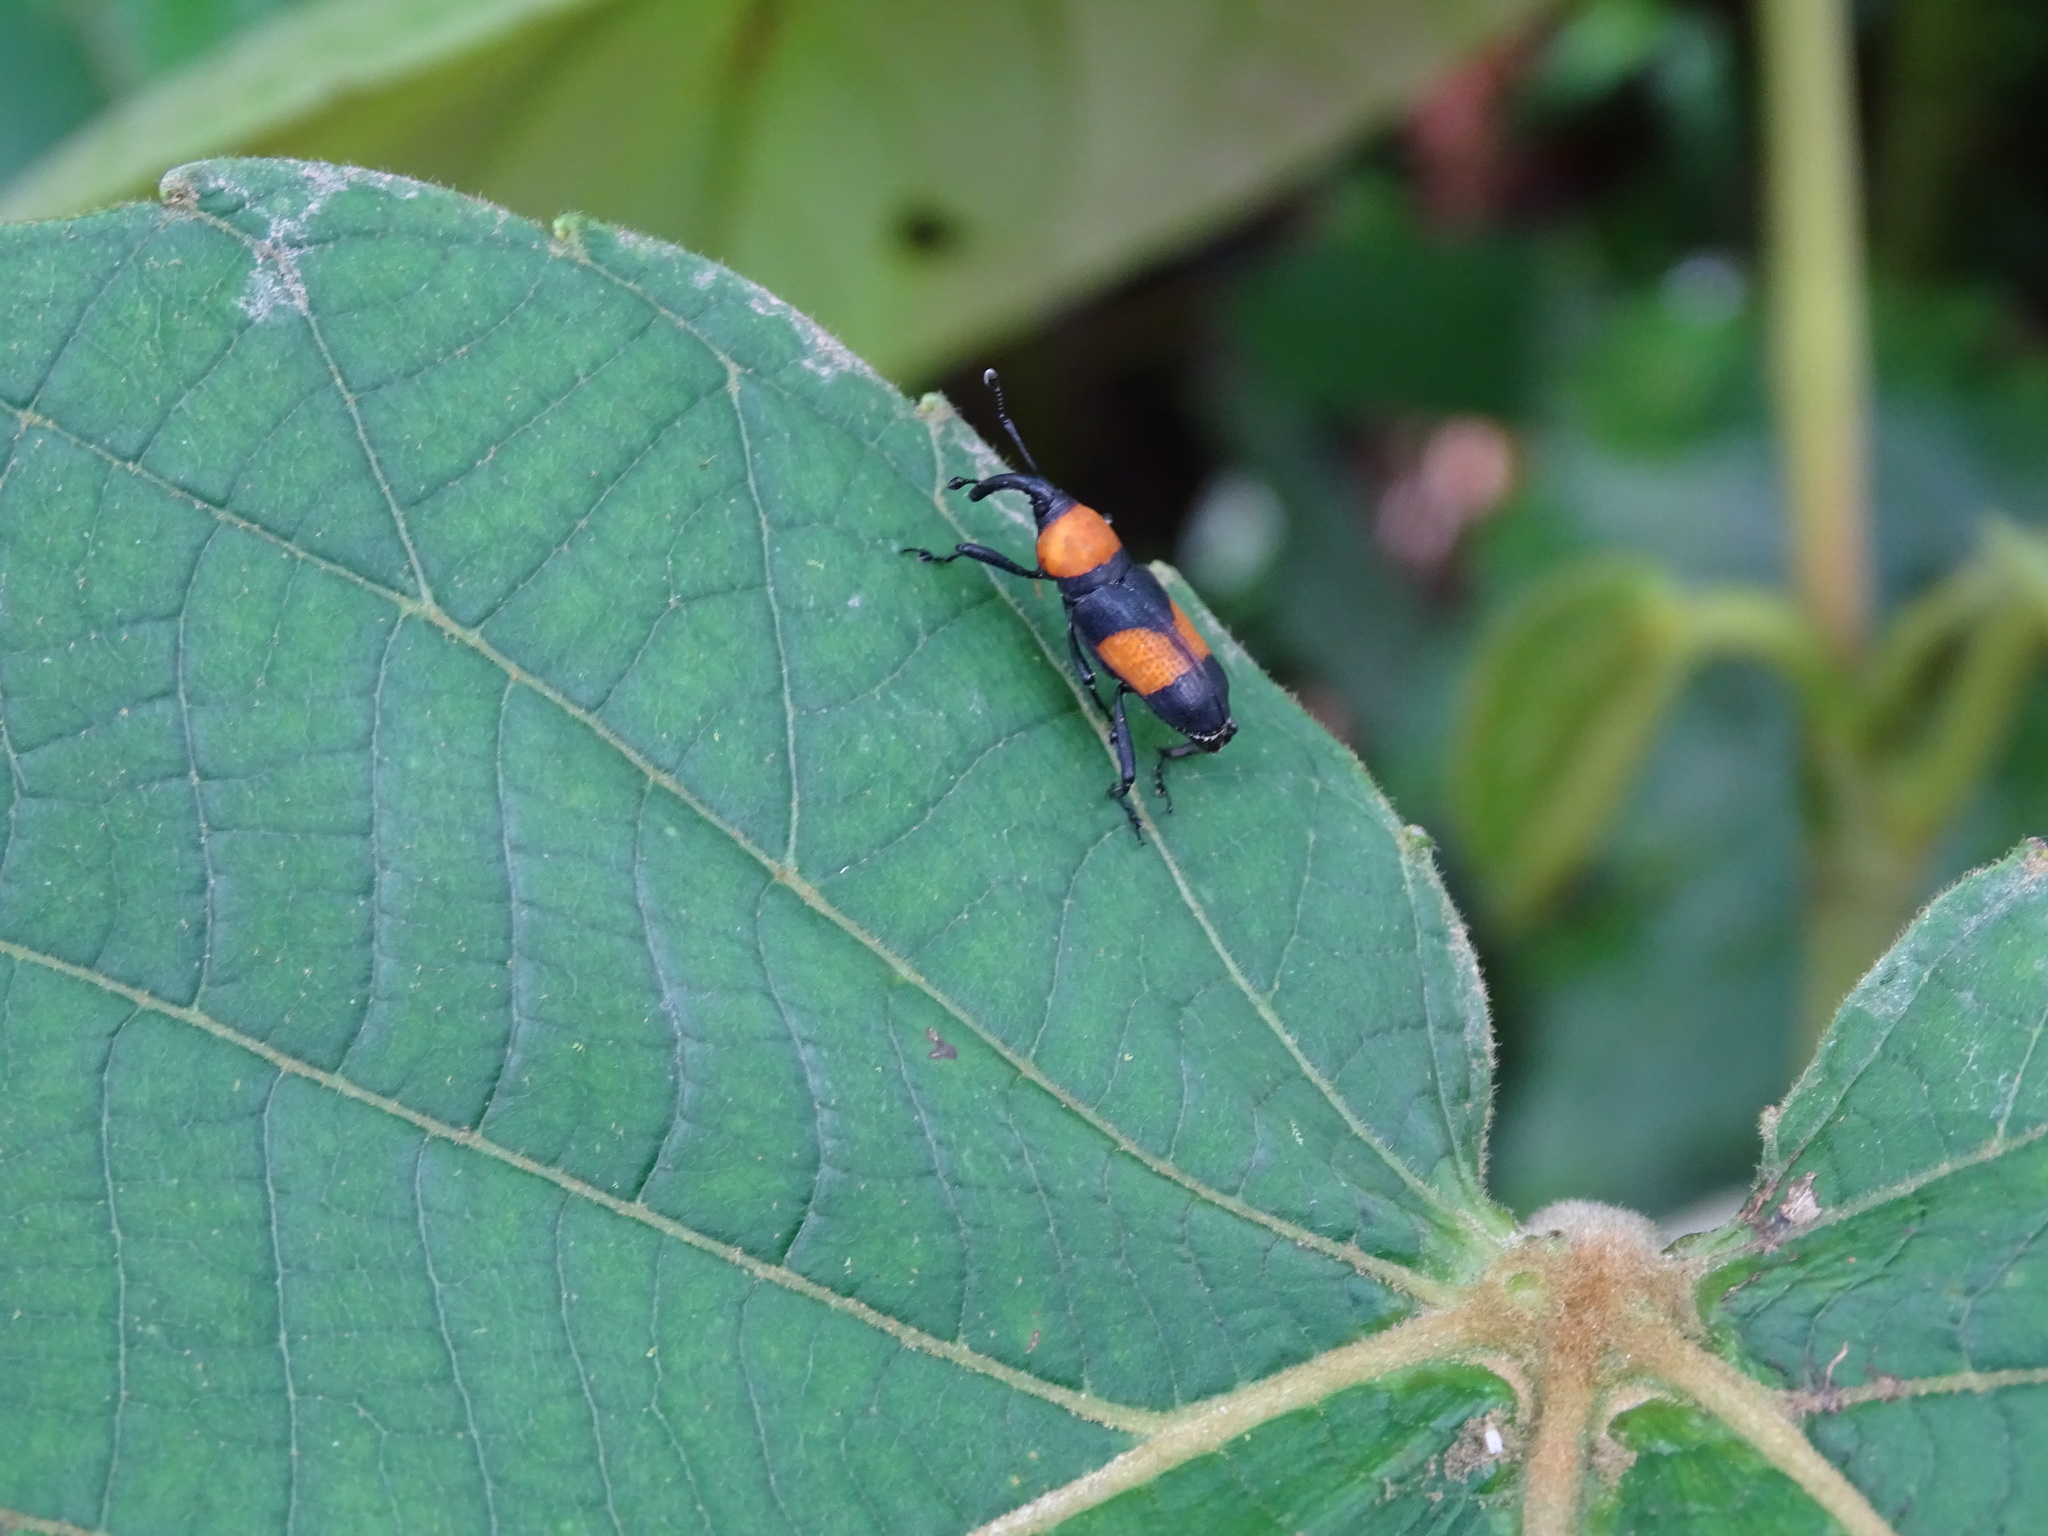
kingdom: Animalia
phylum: Arthropoda
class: Insecta
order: Coleoptera
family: Dryophthoridae
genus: Rhodobaenus
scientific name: Rhodobaenus augustinus
